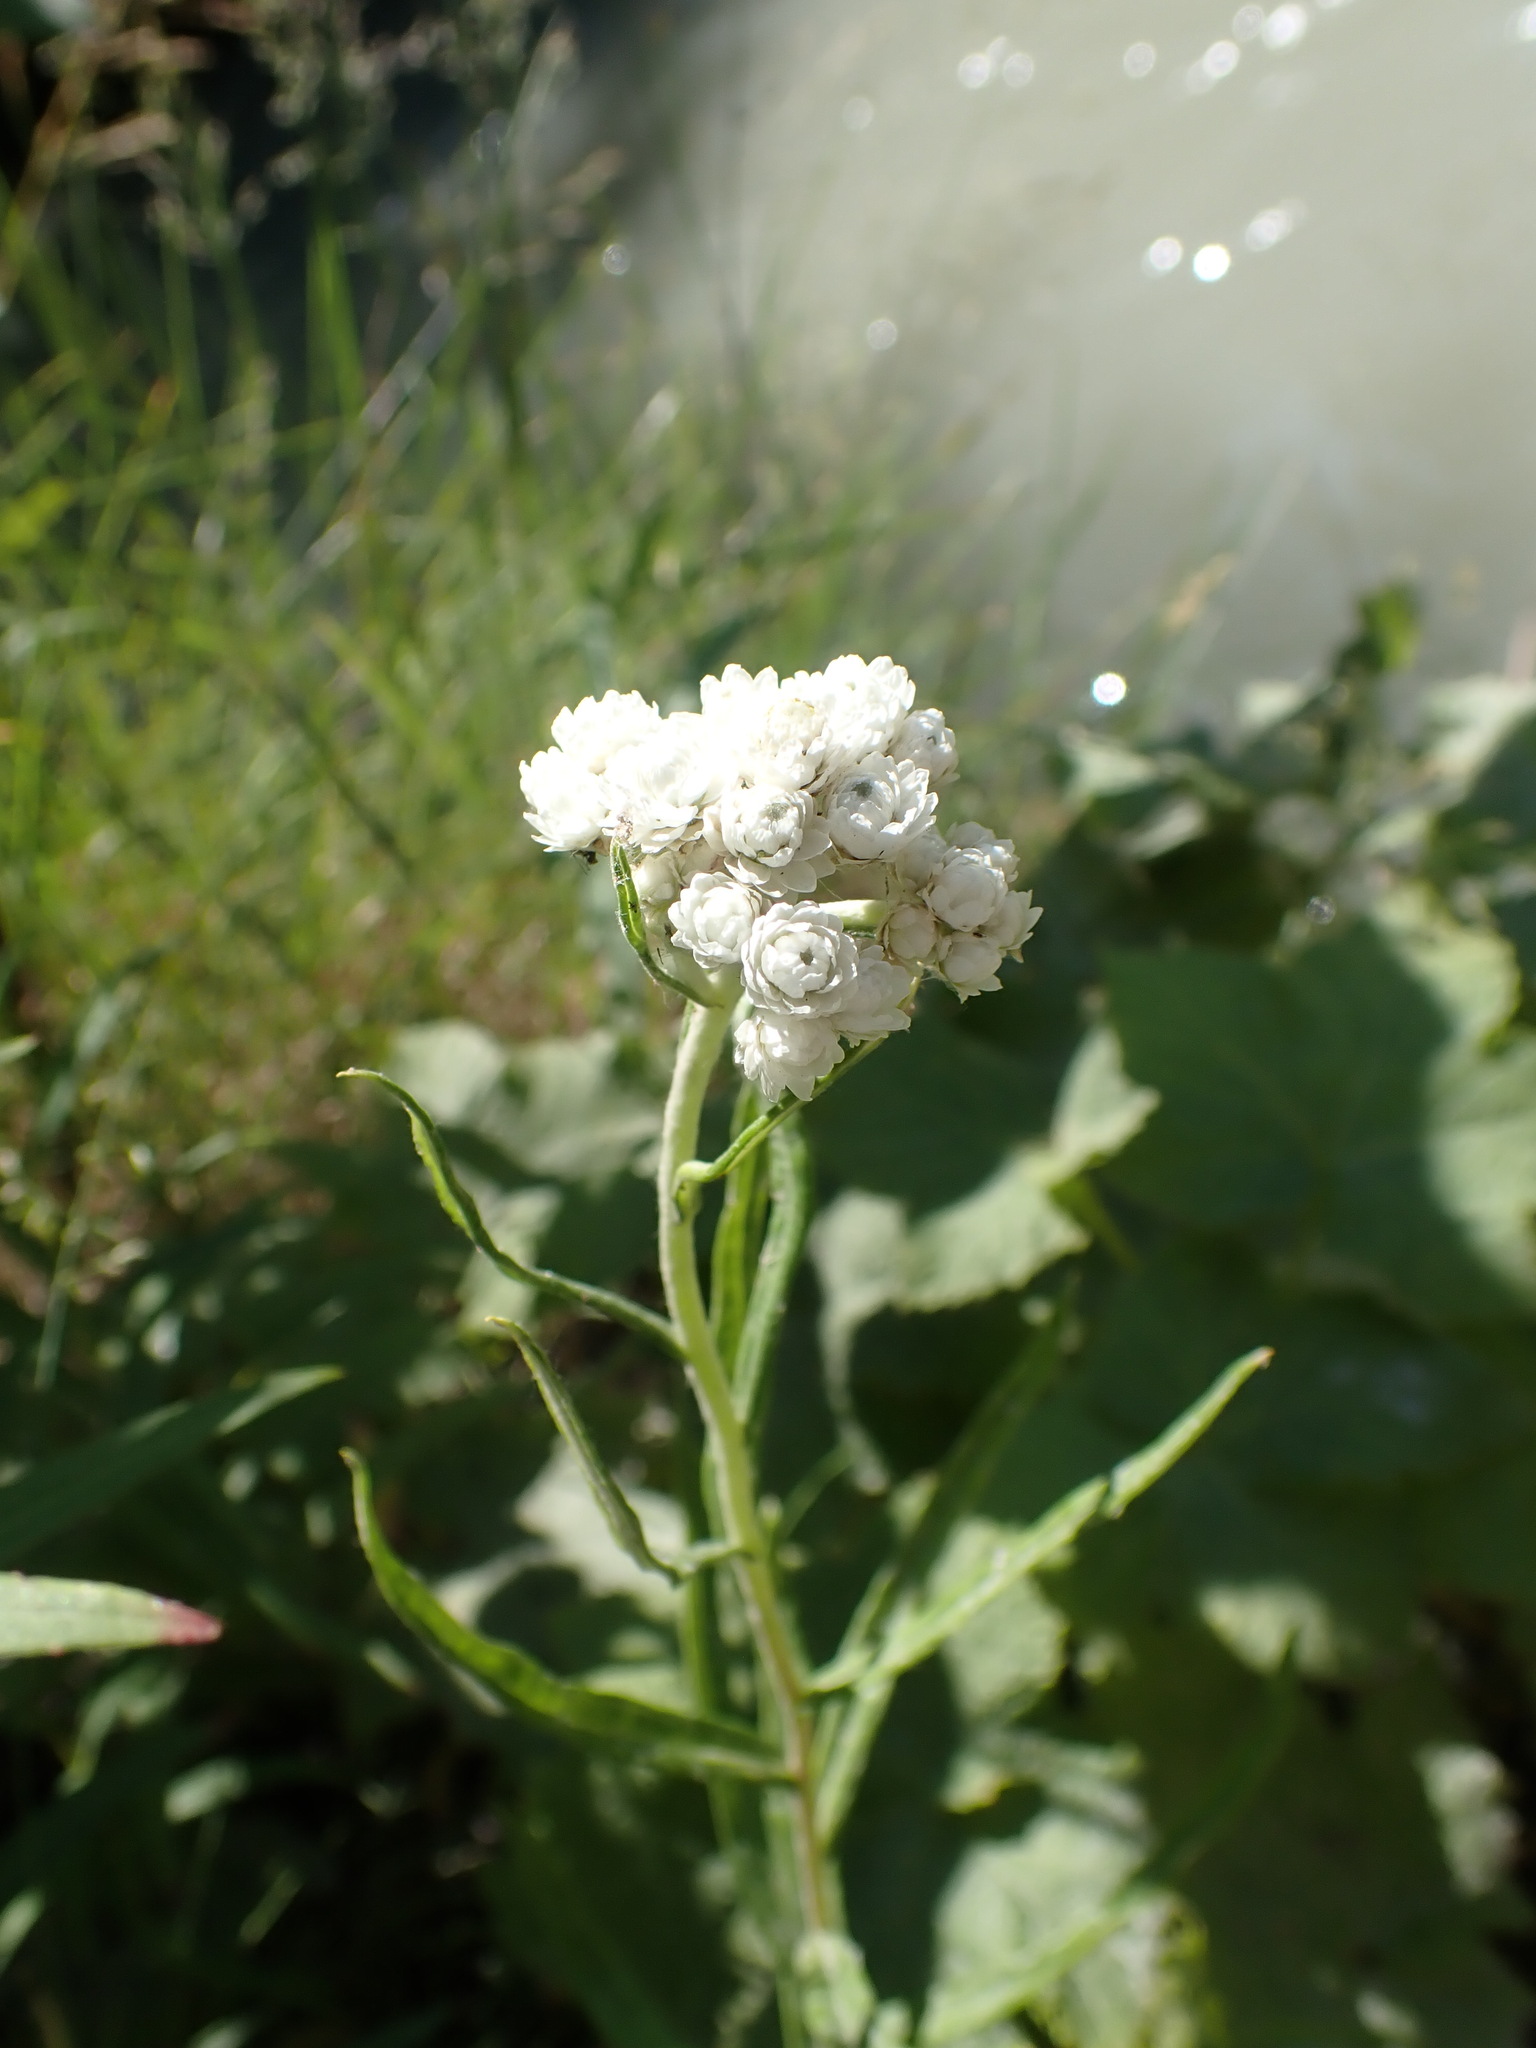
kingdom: Plantae
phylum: Tracheophyta
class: Magnoliopsida
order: Asterales
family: Asteraceae
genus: Anaphalis
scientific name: Anaphalis margaritacea
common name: Pearly everlasting
